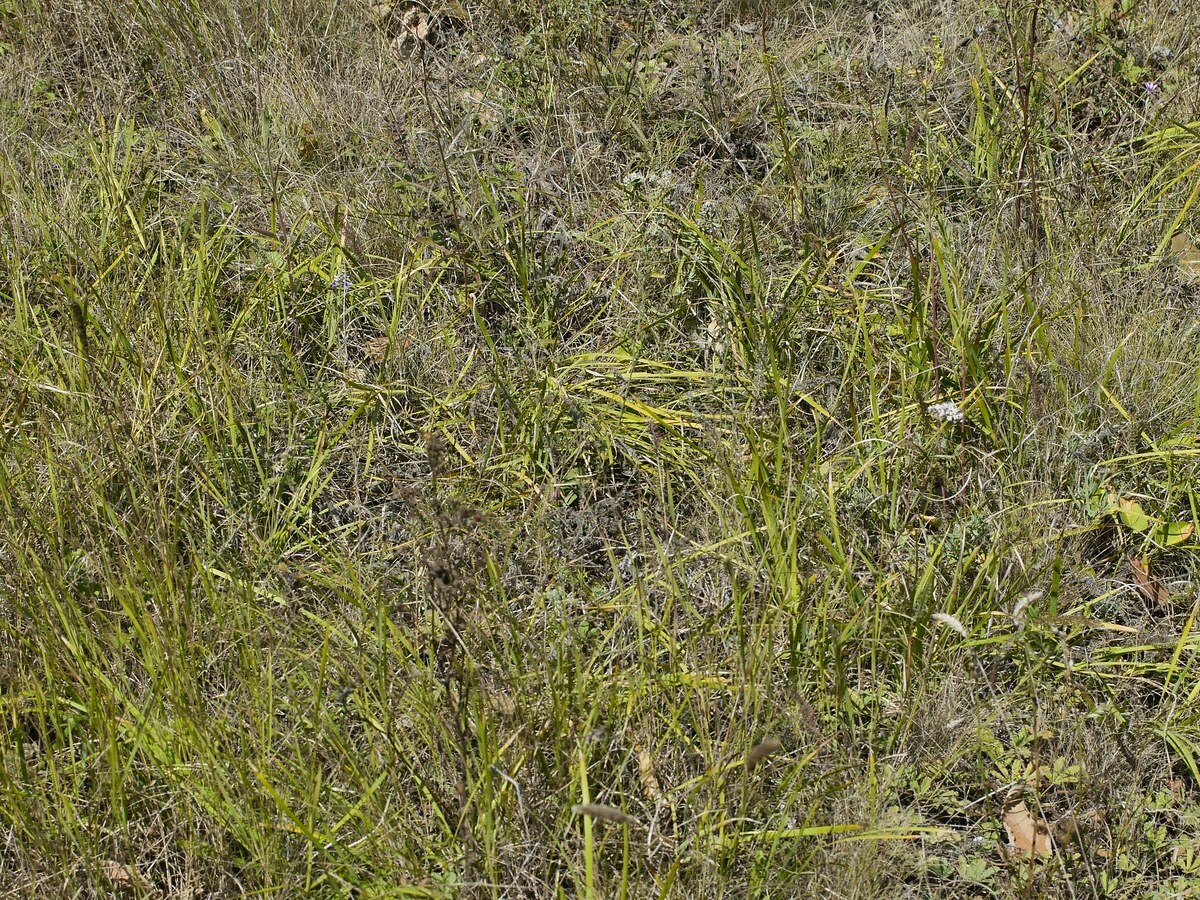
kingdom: Plantae
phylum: Tracheophyta
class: Liliopsida
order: Asparagales
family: Iridaceae
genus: Iris
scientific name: Iris pontica
